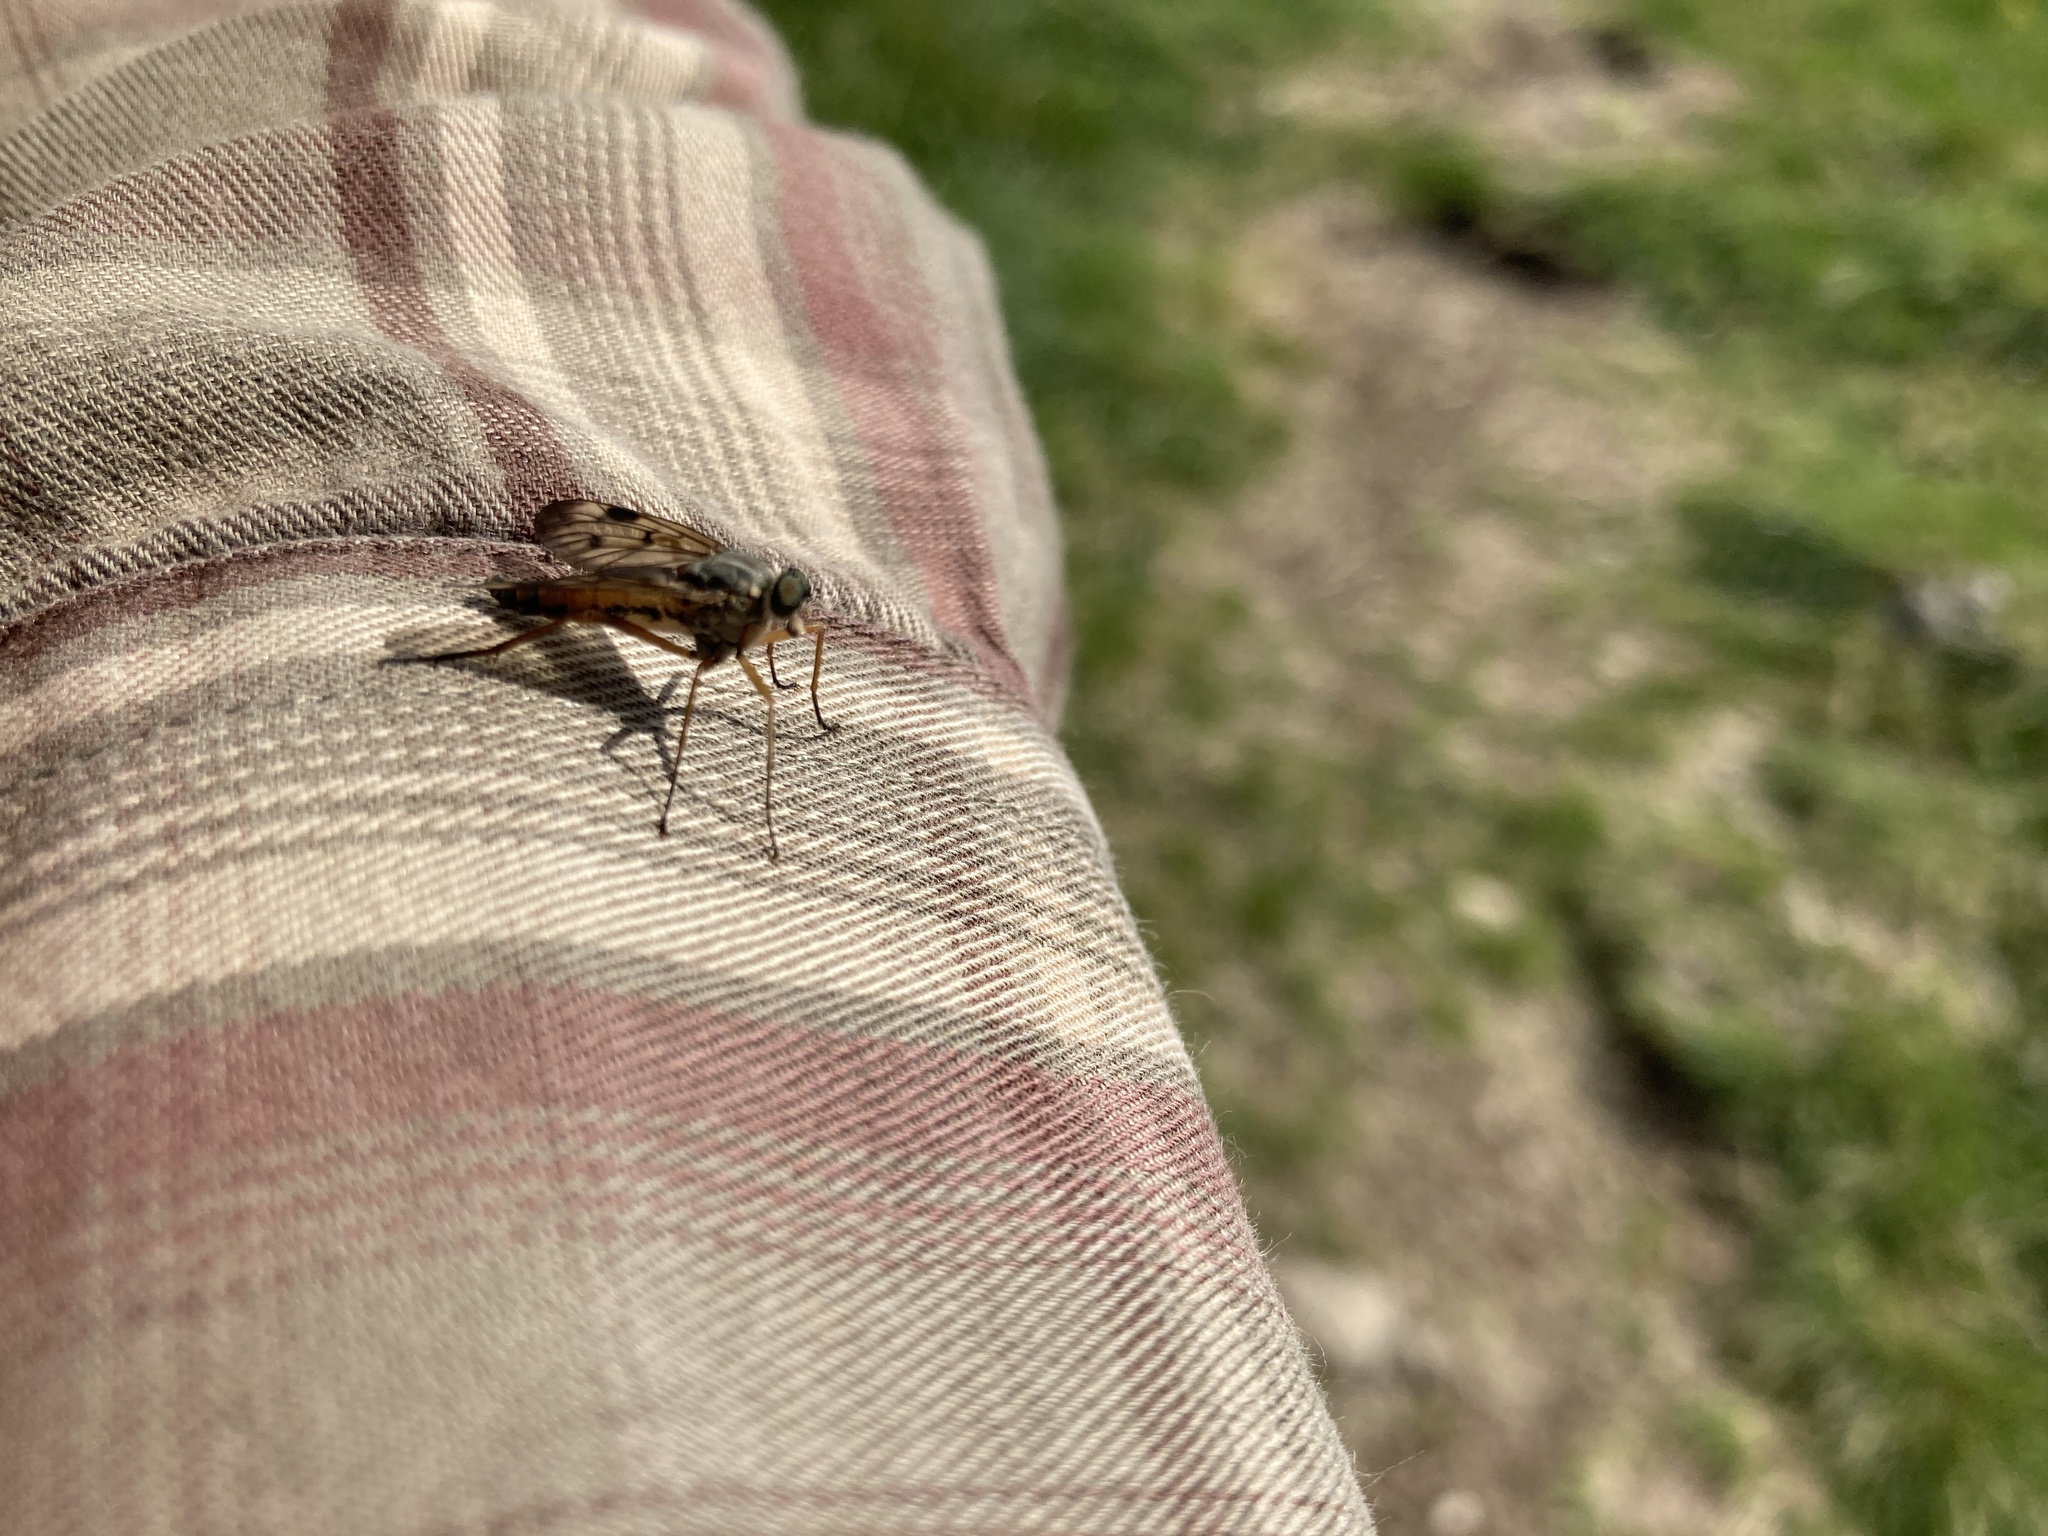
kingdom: Animalia
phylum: Arthropoda
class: Insecta
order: Diptera
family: Rhagionidae
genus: Rhagio
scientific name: Rhagio scolopacea
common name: Downlooker snipefly
